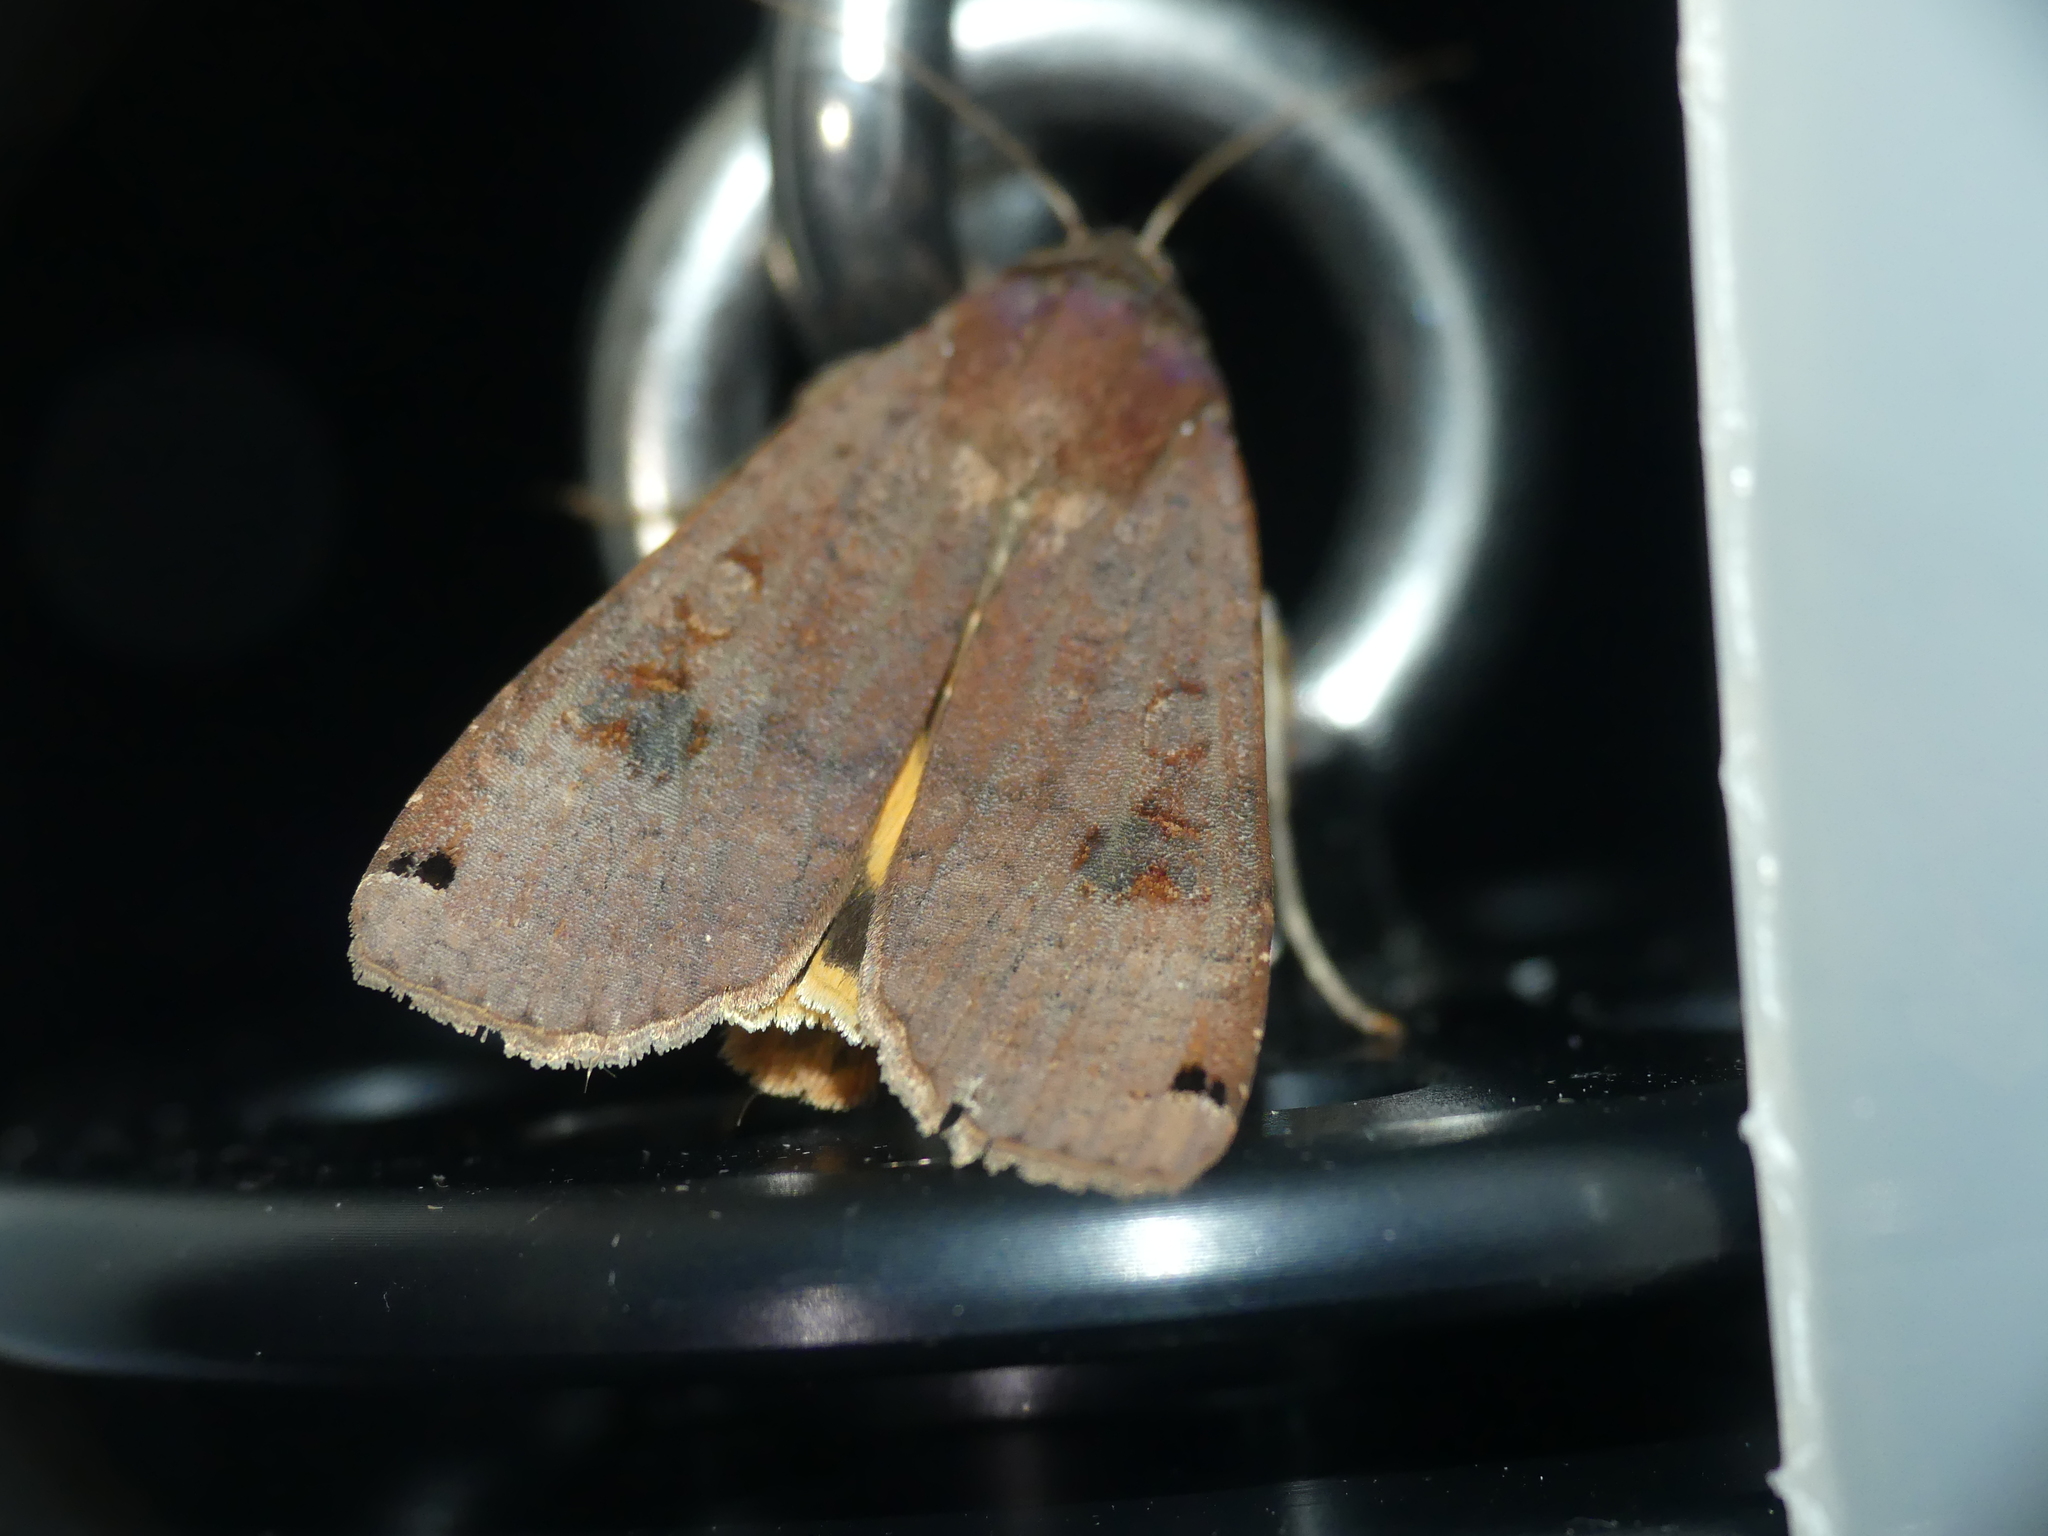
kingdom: Animalia
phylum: Arthropoda
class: Insecta
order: Lepidoptera
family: Noctuidae
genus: Noctua
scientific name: Noctua pronuba
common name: Large yellow underwing
